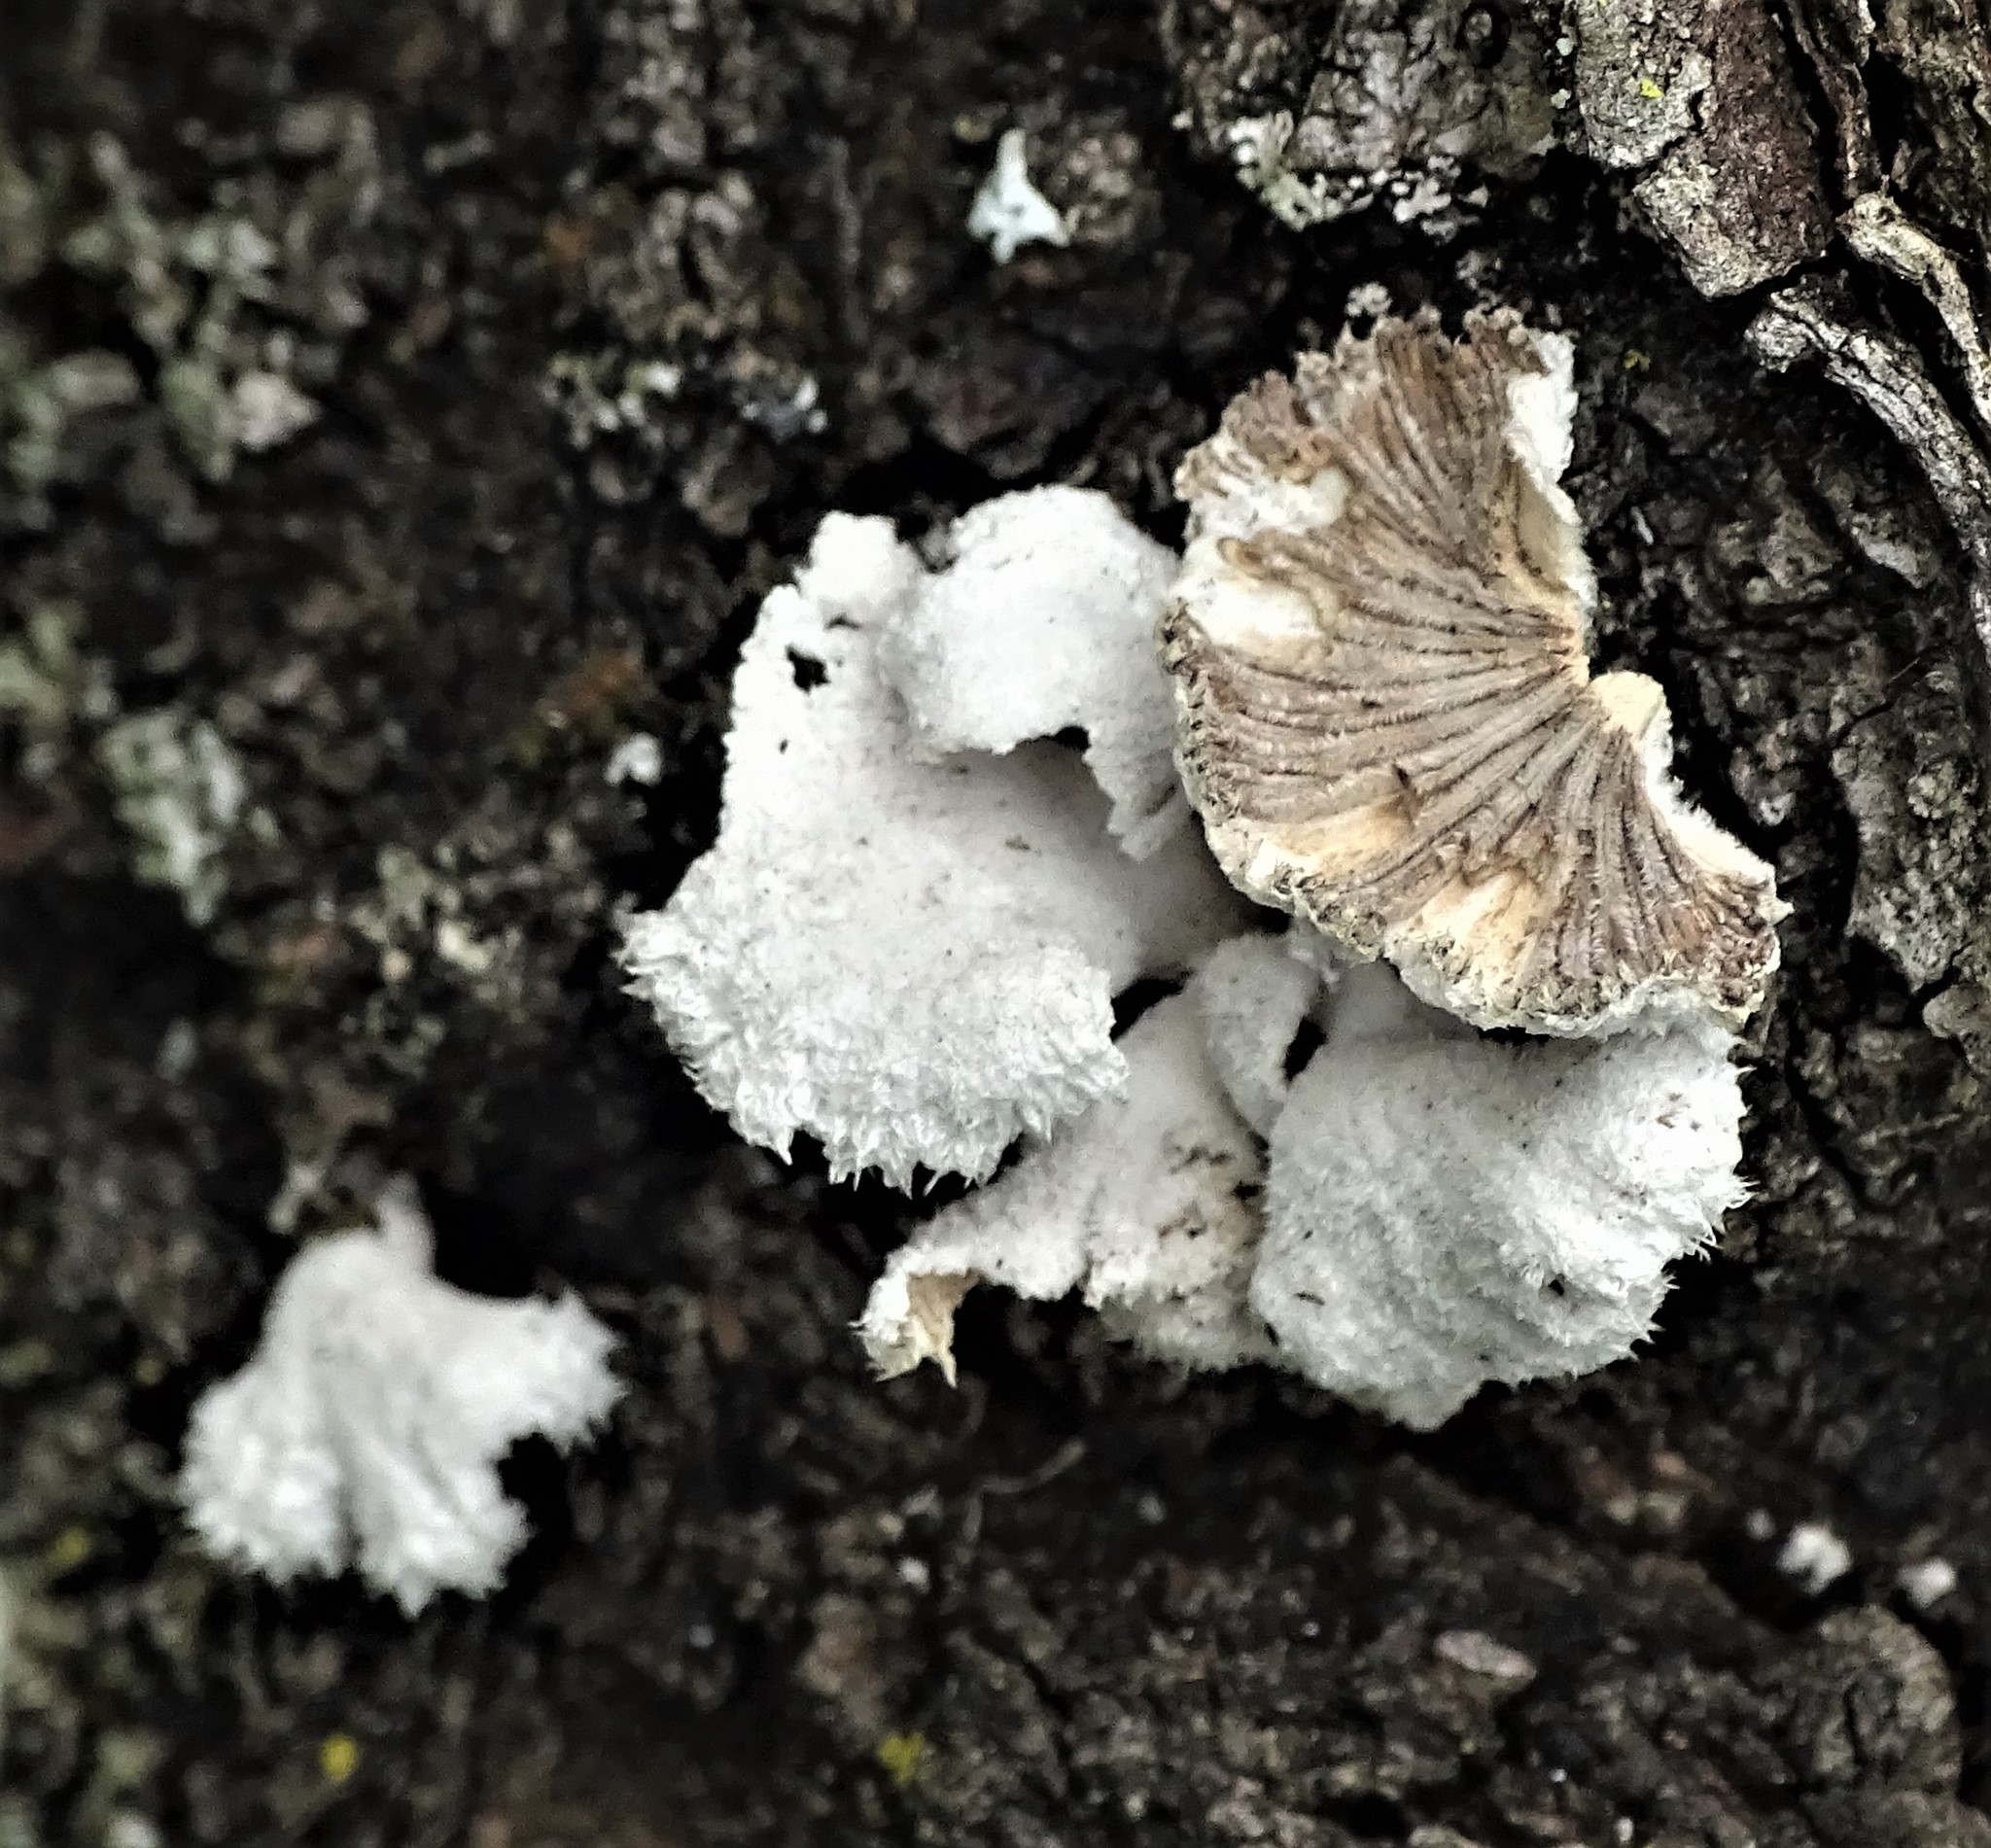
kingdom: Fungi
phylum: Basidiomycota
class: Agaricomycetes
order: Agaricales
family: Schizophyllaceae
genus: Schizophyllum
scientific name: Schizophyllum commune
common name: Common porecrust
